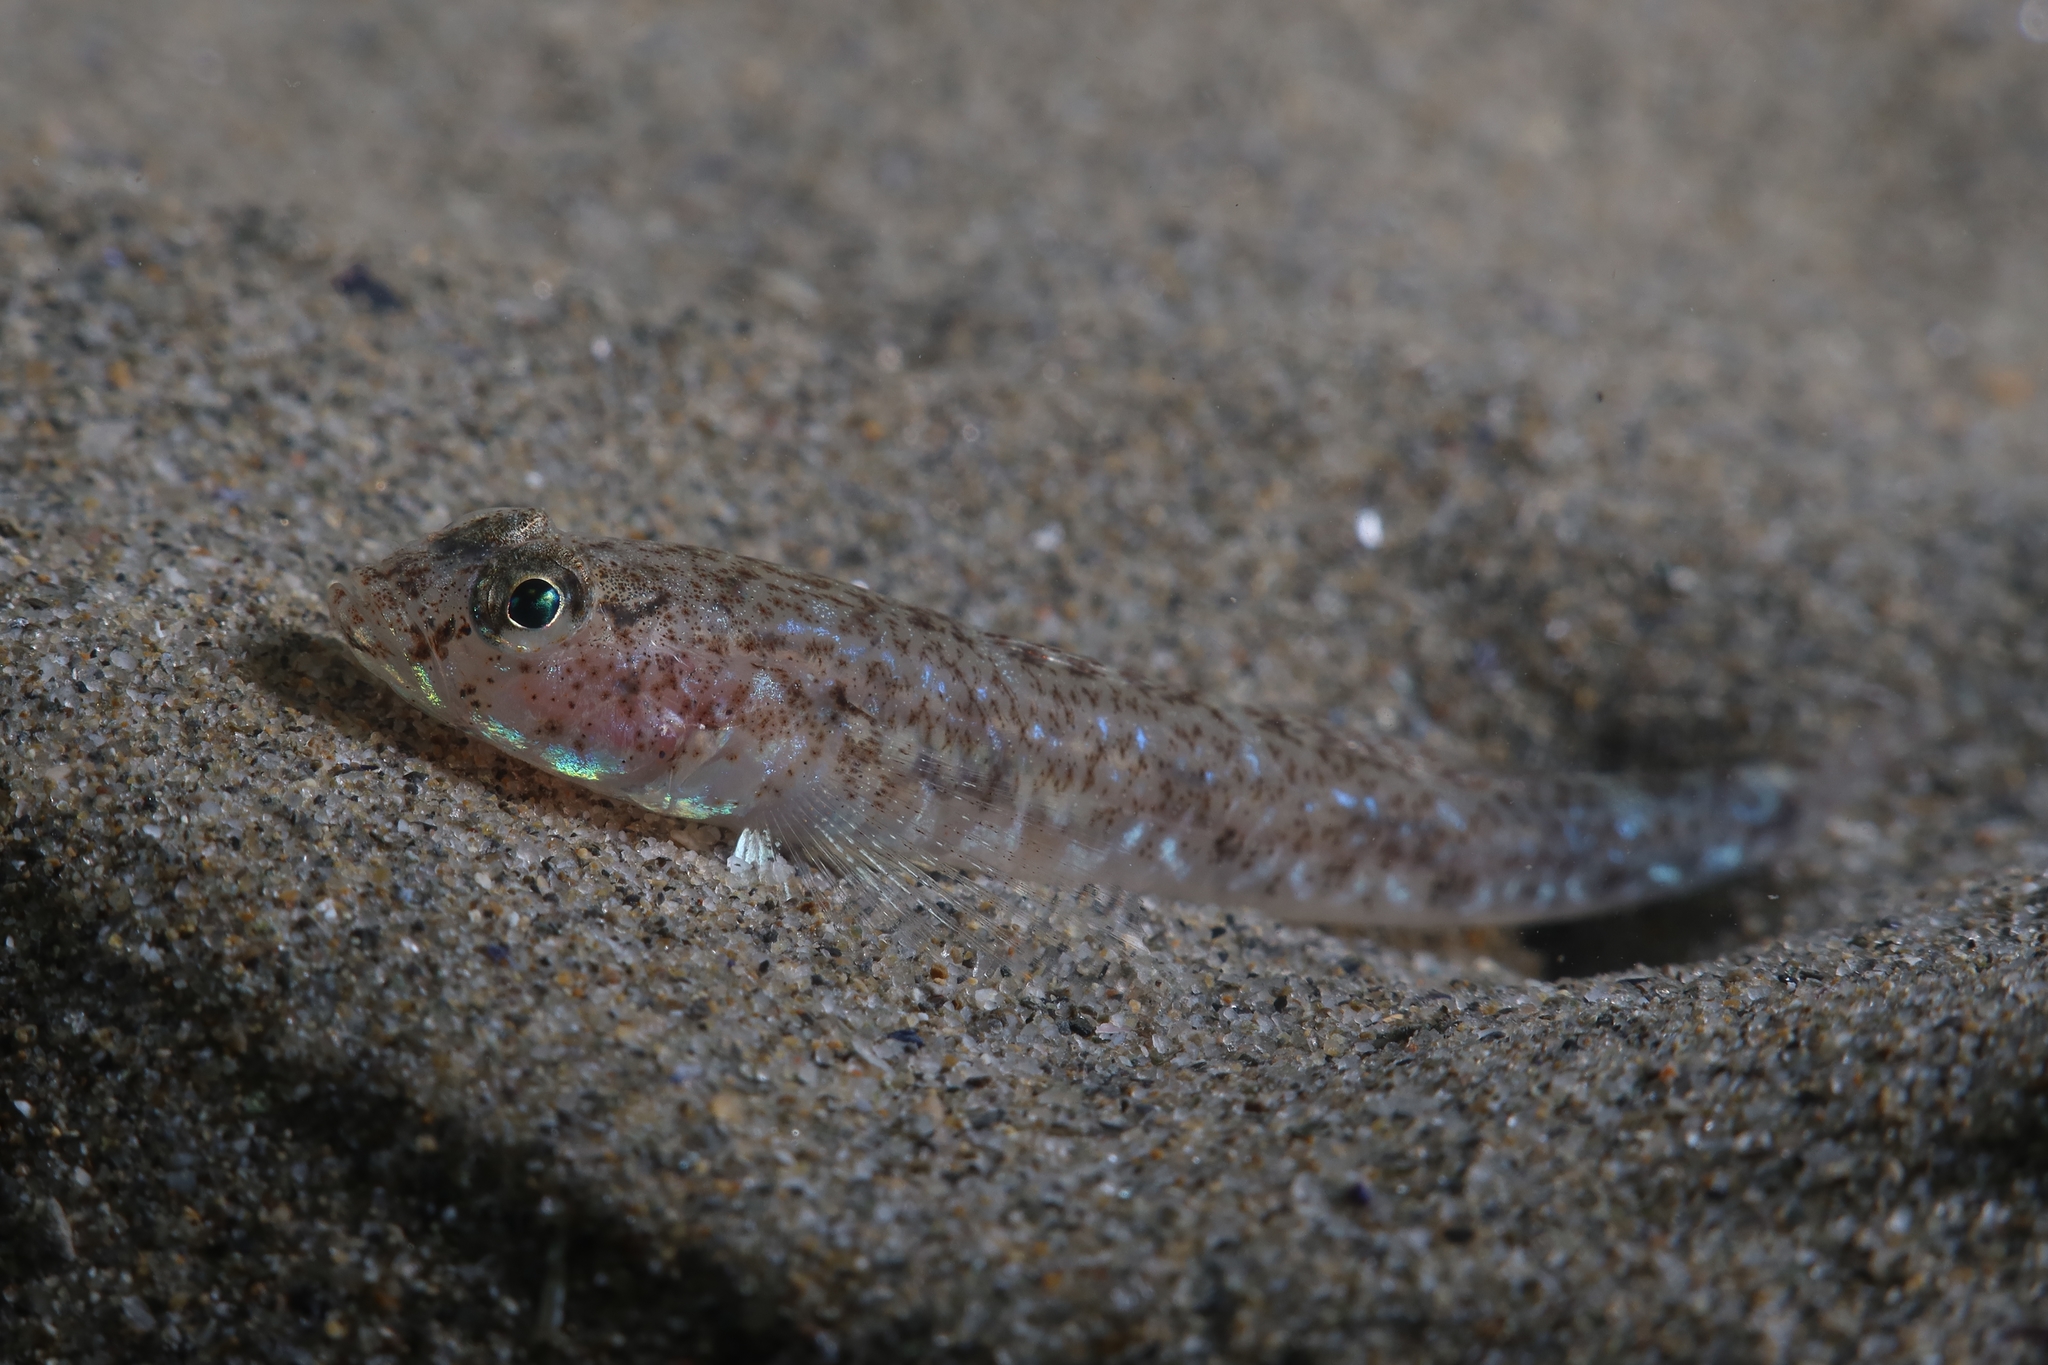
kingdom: Animalia
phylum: Chordata
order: Perciformes
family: Gobiidae
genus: Pomatoschistus
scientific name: Pomatoschistus marmoratus
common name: Marbled goby
